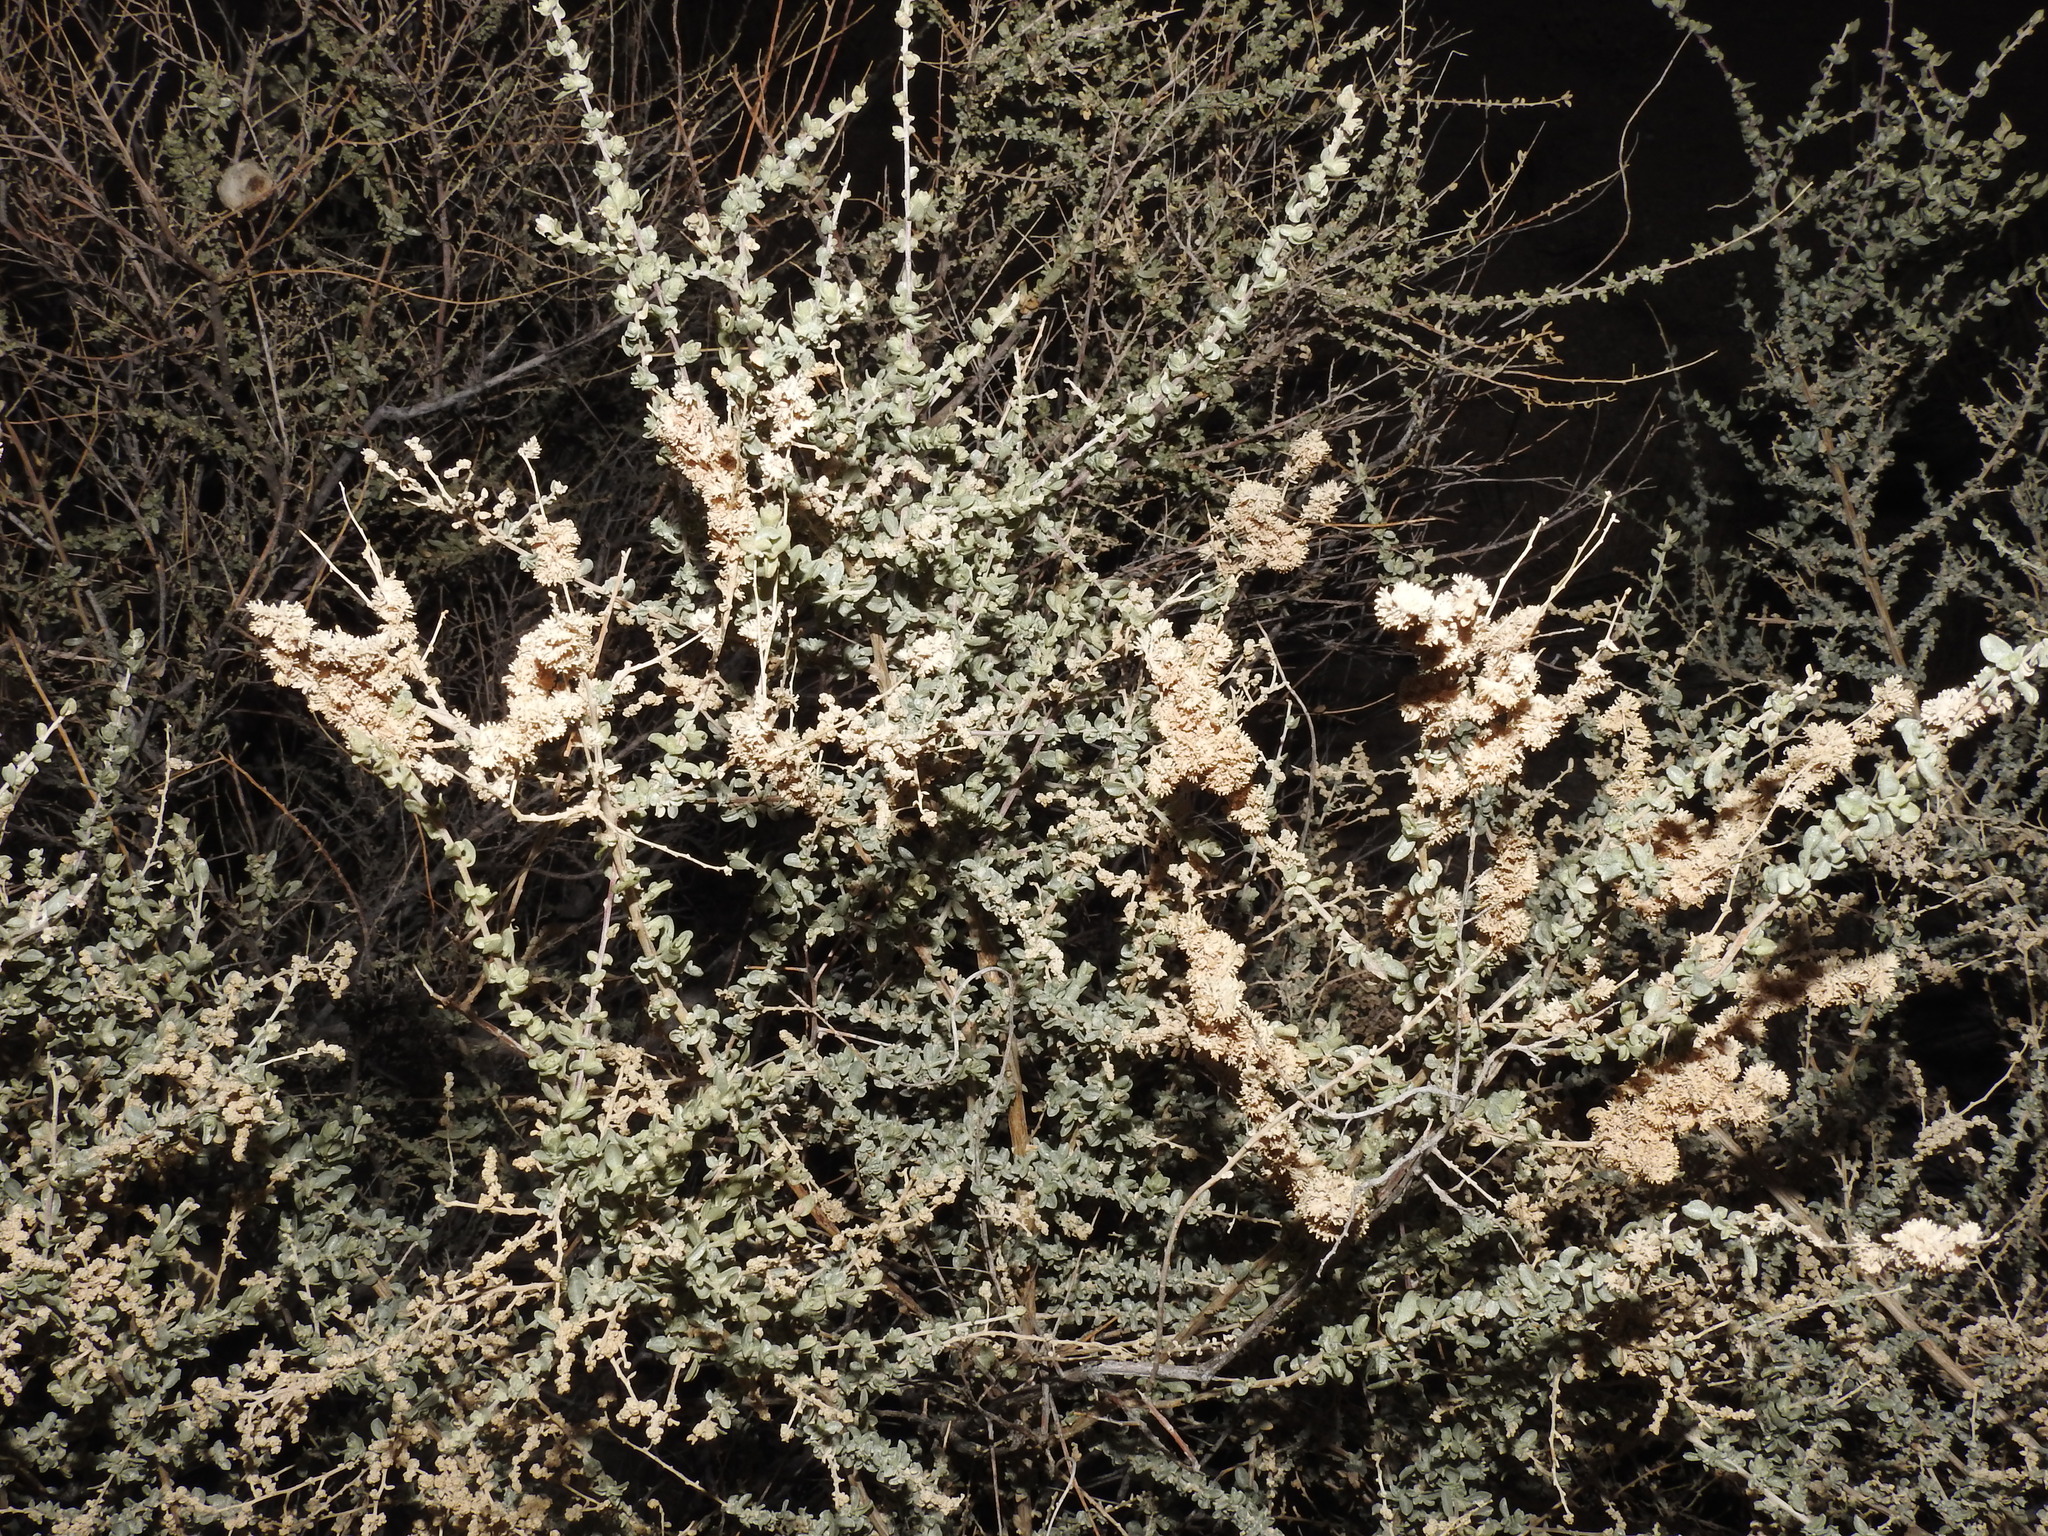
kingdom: Plantae
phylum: Tracheophyta
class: Magnoliopsida
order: Caryophyllales
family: Amaranthaceae
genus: Atriplex
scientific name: Atriplex polycarpa
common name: Desert saltbush
